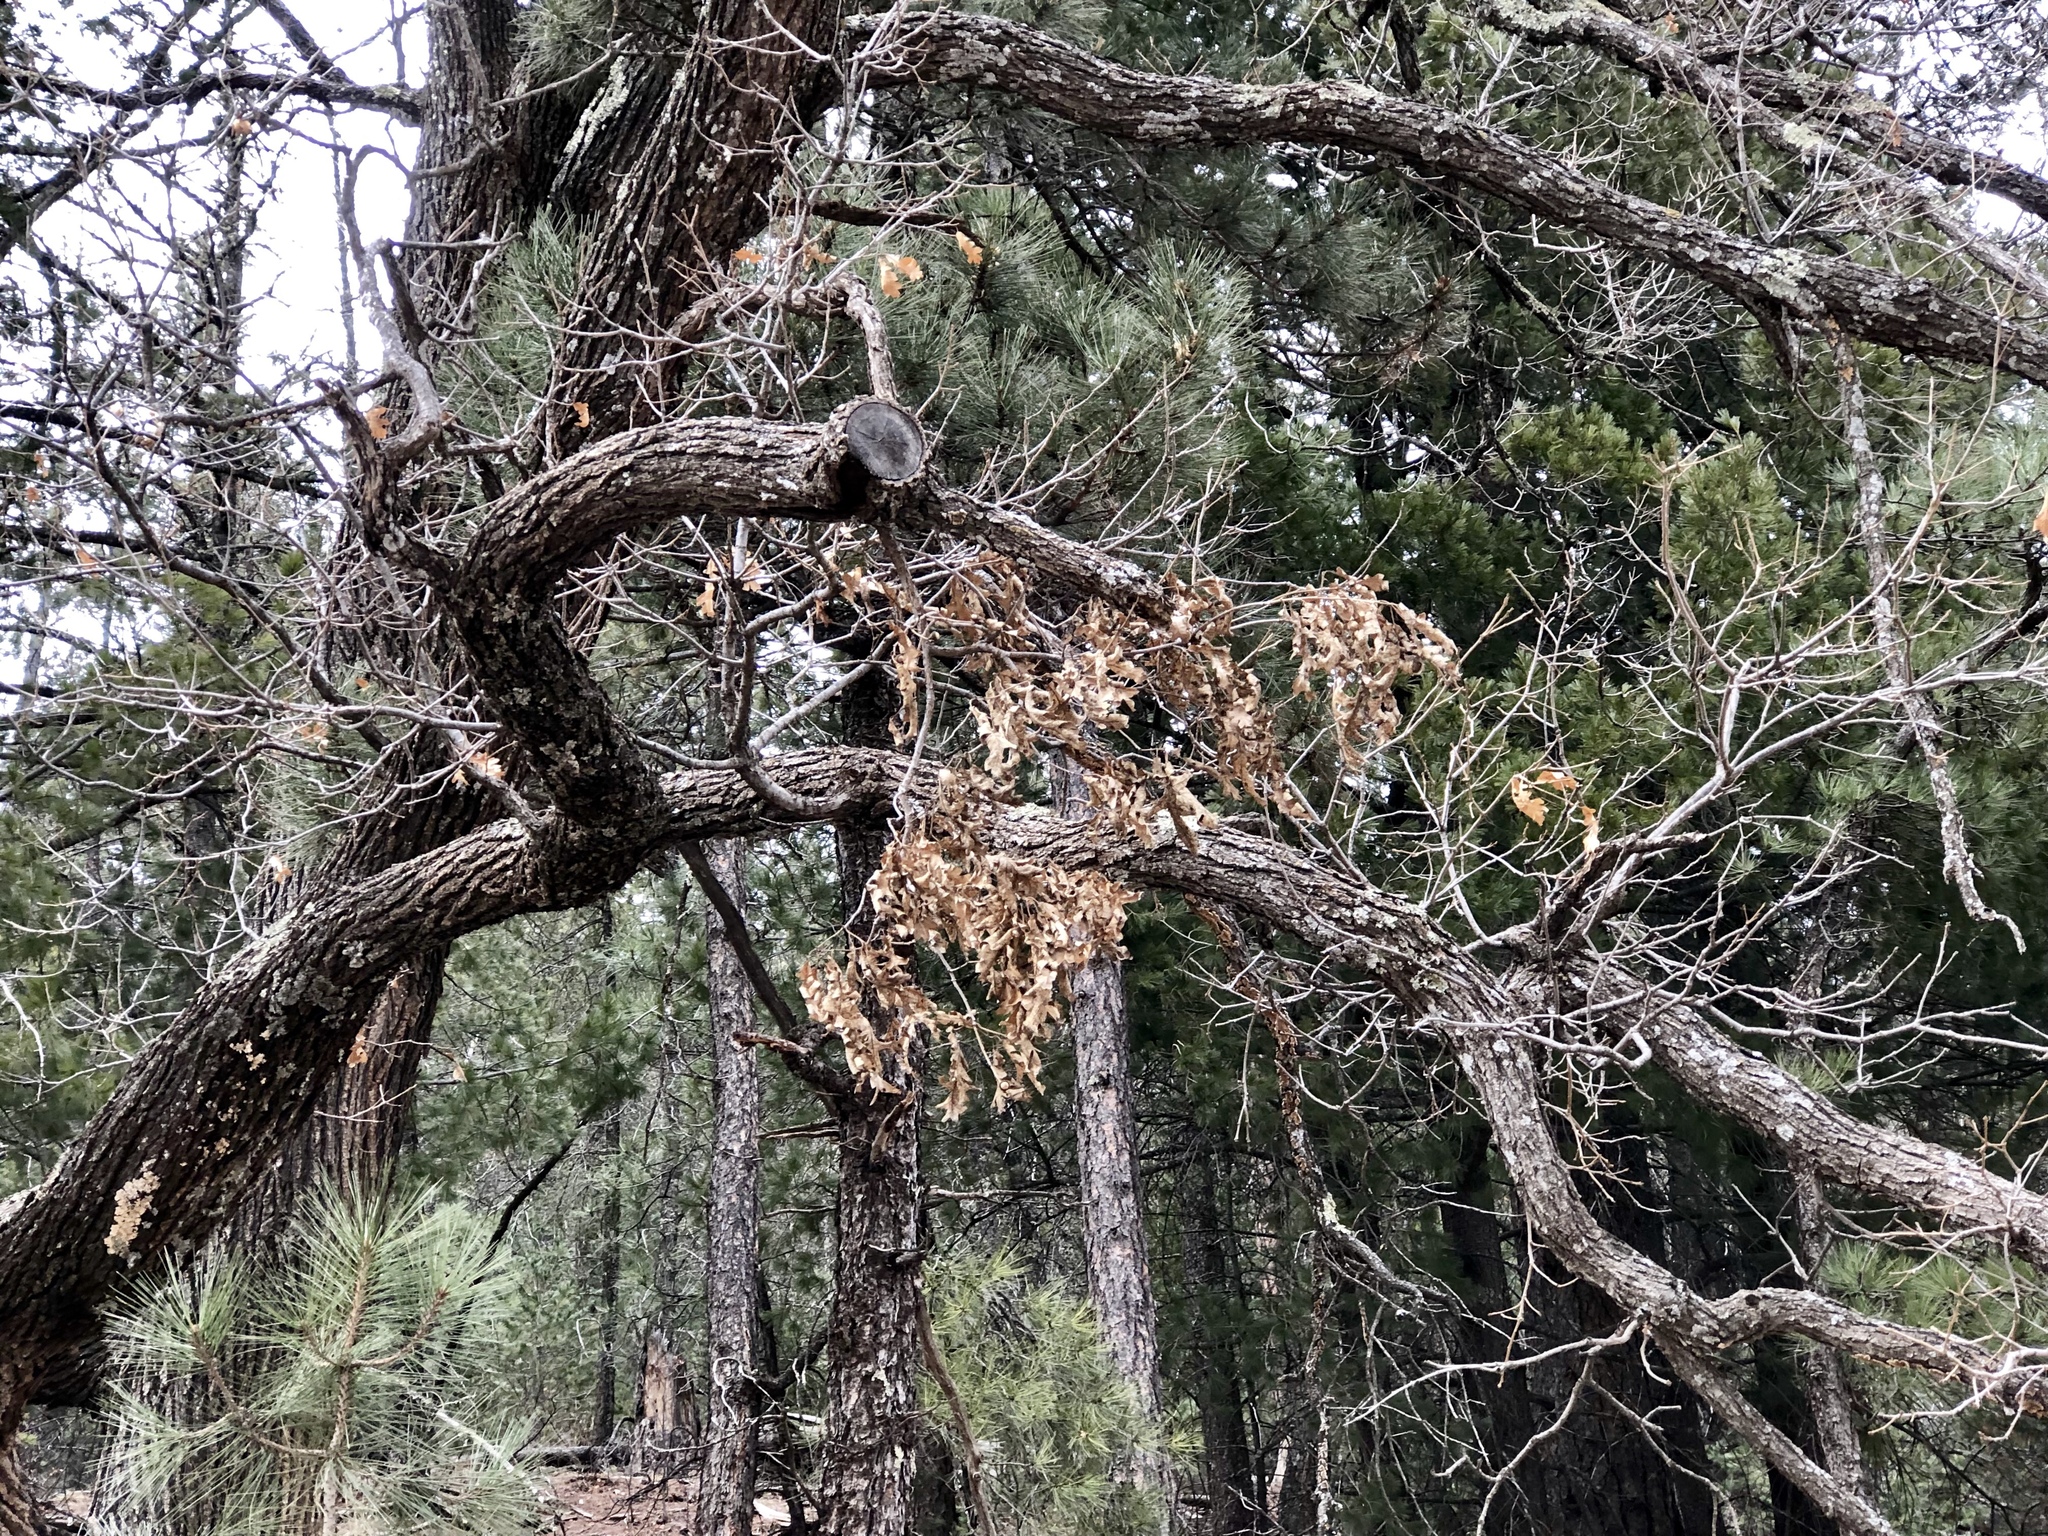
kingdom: Plantae
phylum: Tracheophyta
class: Magnoliopsida
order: Fagales
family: Fagaceae
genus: Quercus
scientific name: Quercus gambelii
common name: Gambel oak
